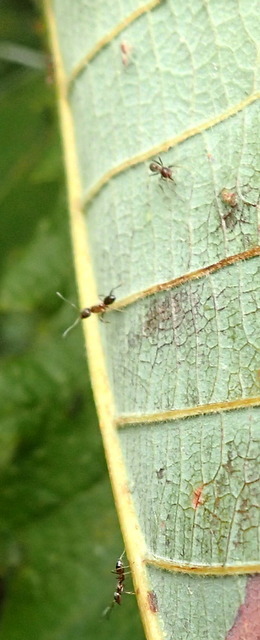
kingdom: Animalia
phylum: Arthropoda
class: Insecta
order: Hymenoptera
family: Formicidae
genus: Linepithema
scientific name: Linepithema humile
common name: Argentine ant
